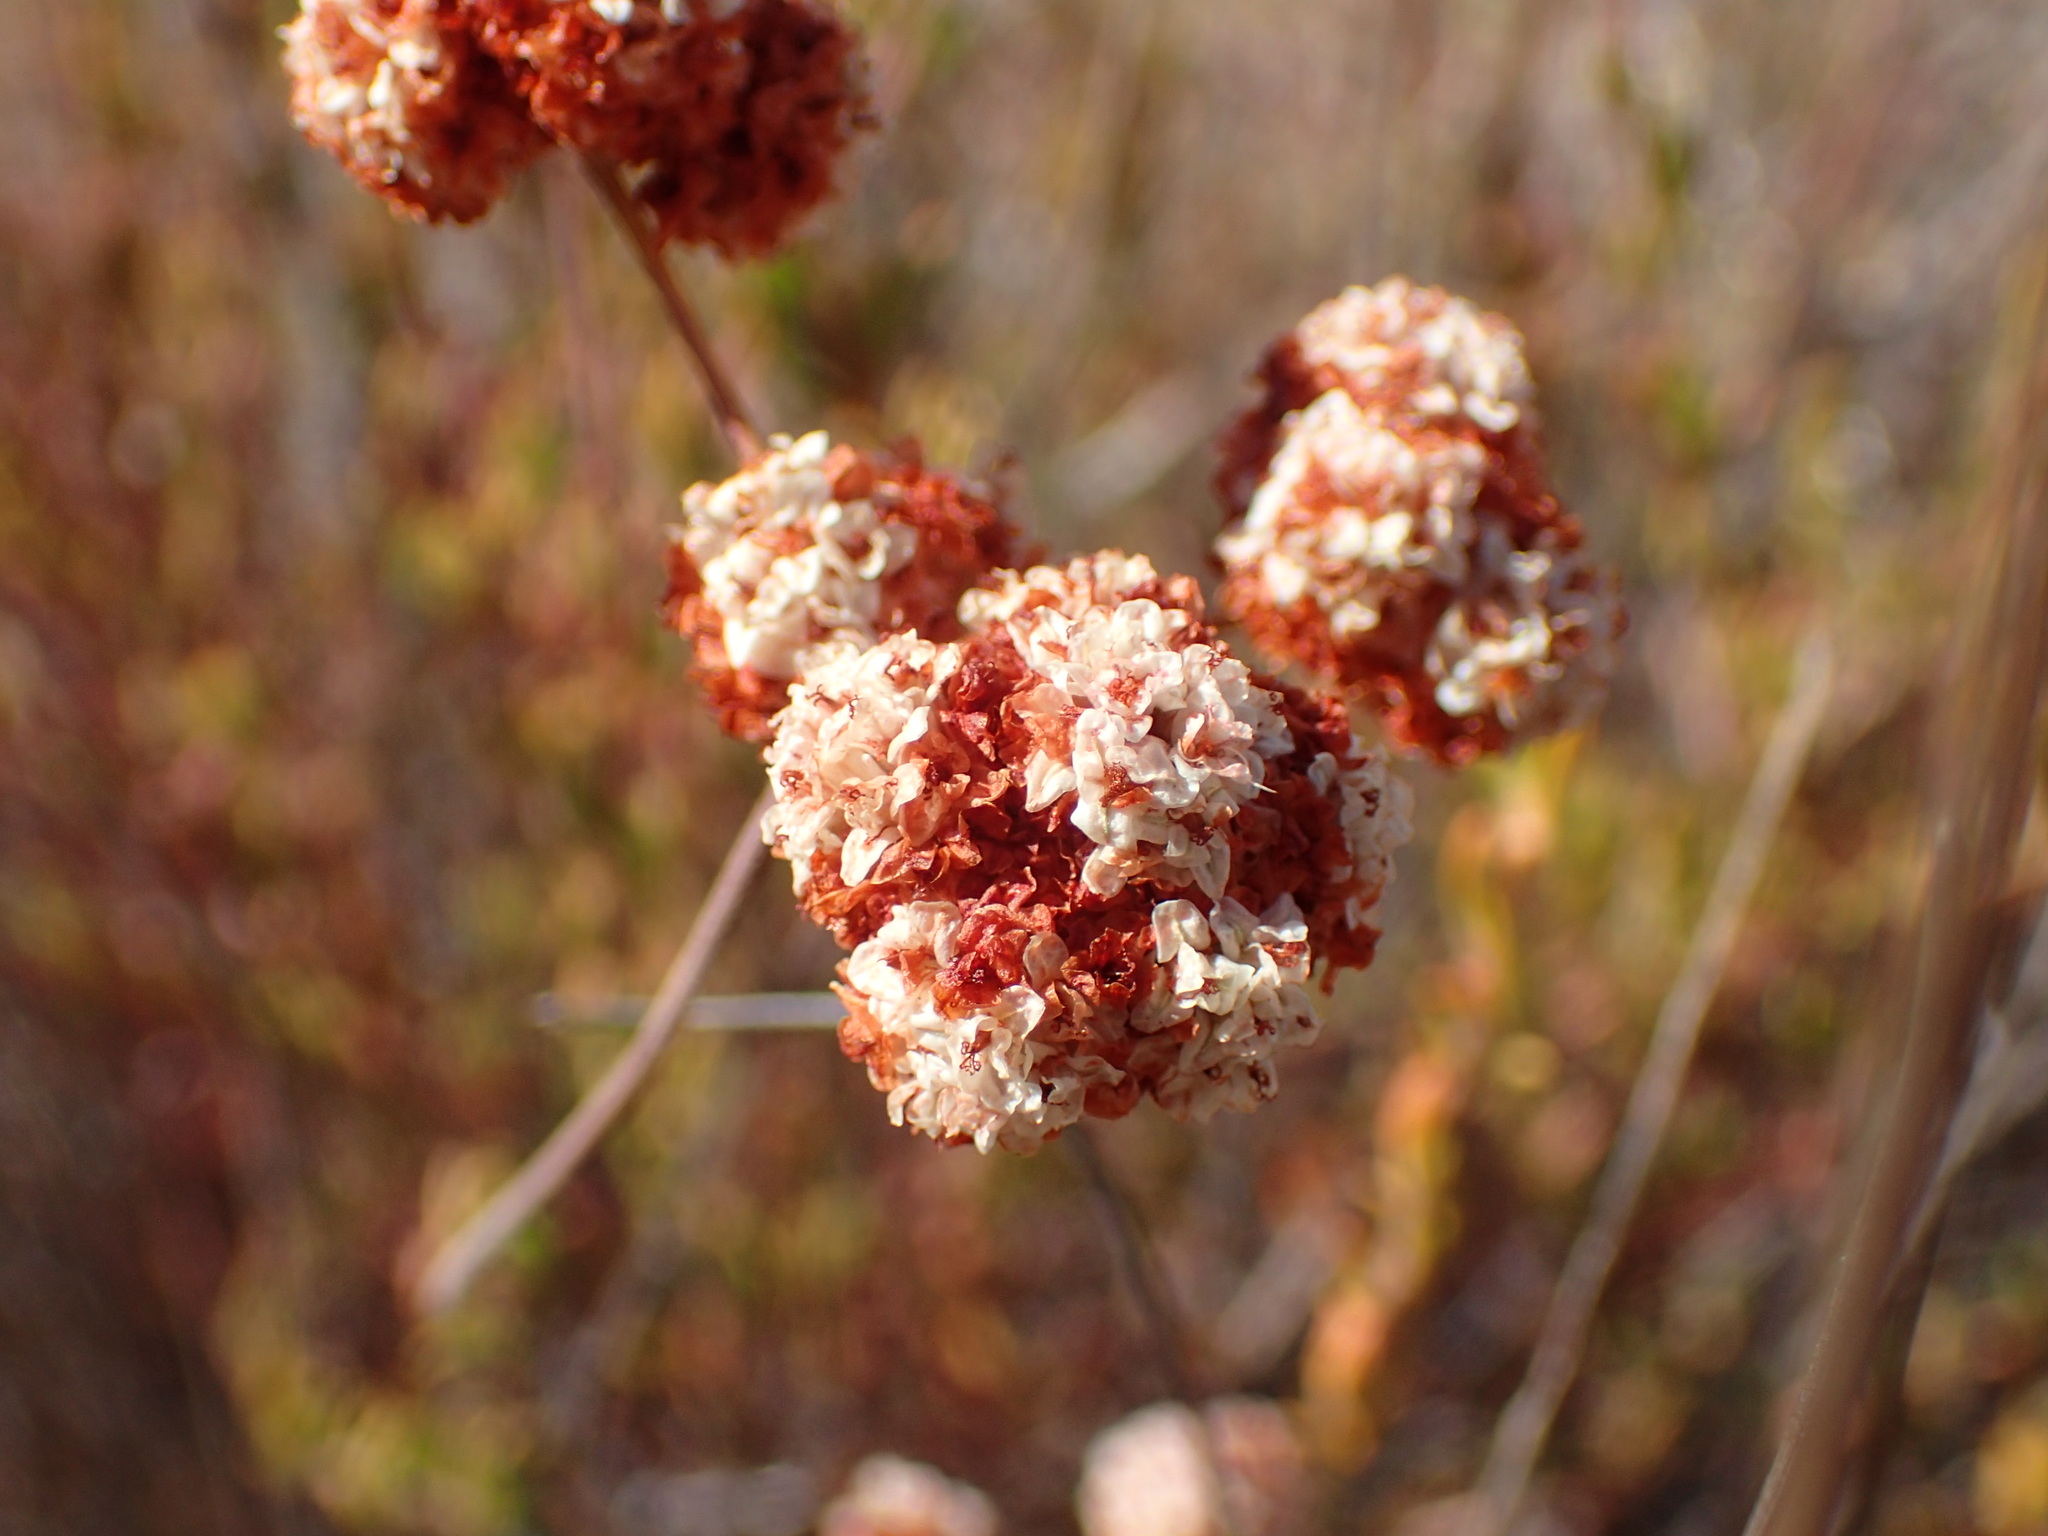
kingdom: Plantae
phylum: Tracheophyta
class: Magnoliopsida
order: Caryophyllales
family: Polygonaceae
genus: Eriogonum
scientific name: Eriogonum fasciculatum
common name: California wild buckwheat
